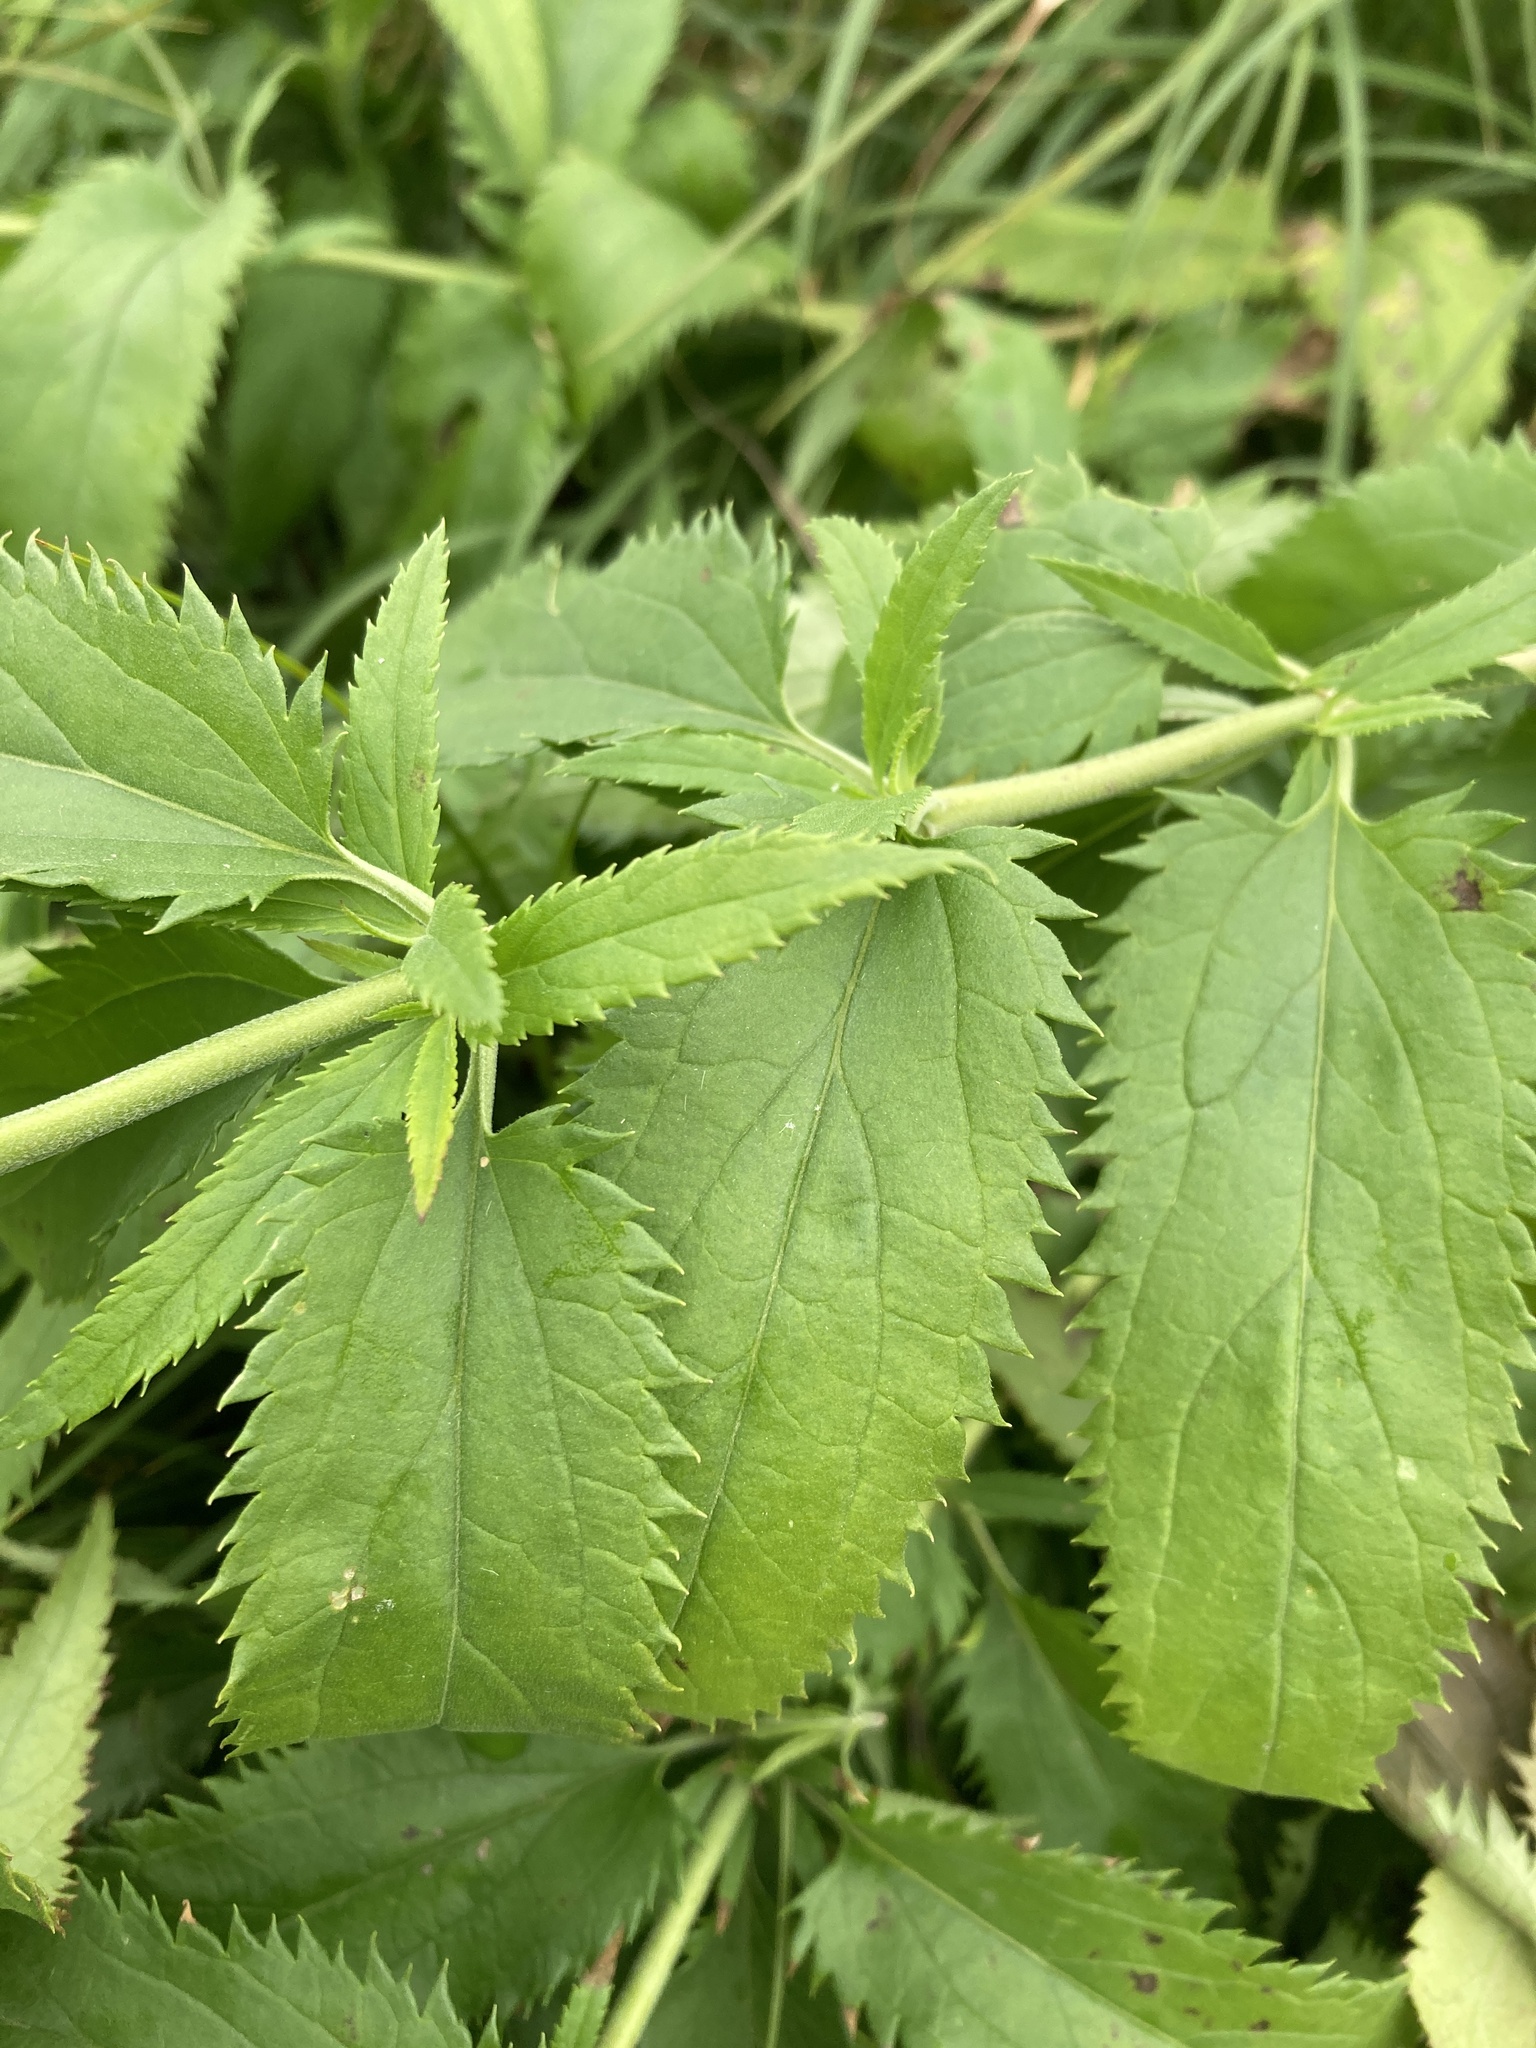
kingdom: Plantae
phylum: Tracheophyta
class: Magnoliopsida
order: Lamiales
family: Plantaginaceae
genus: Veronica
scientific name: Veronica longifolia
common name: Garden speedwell
